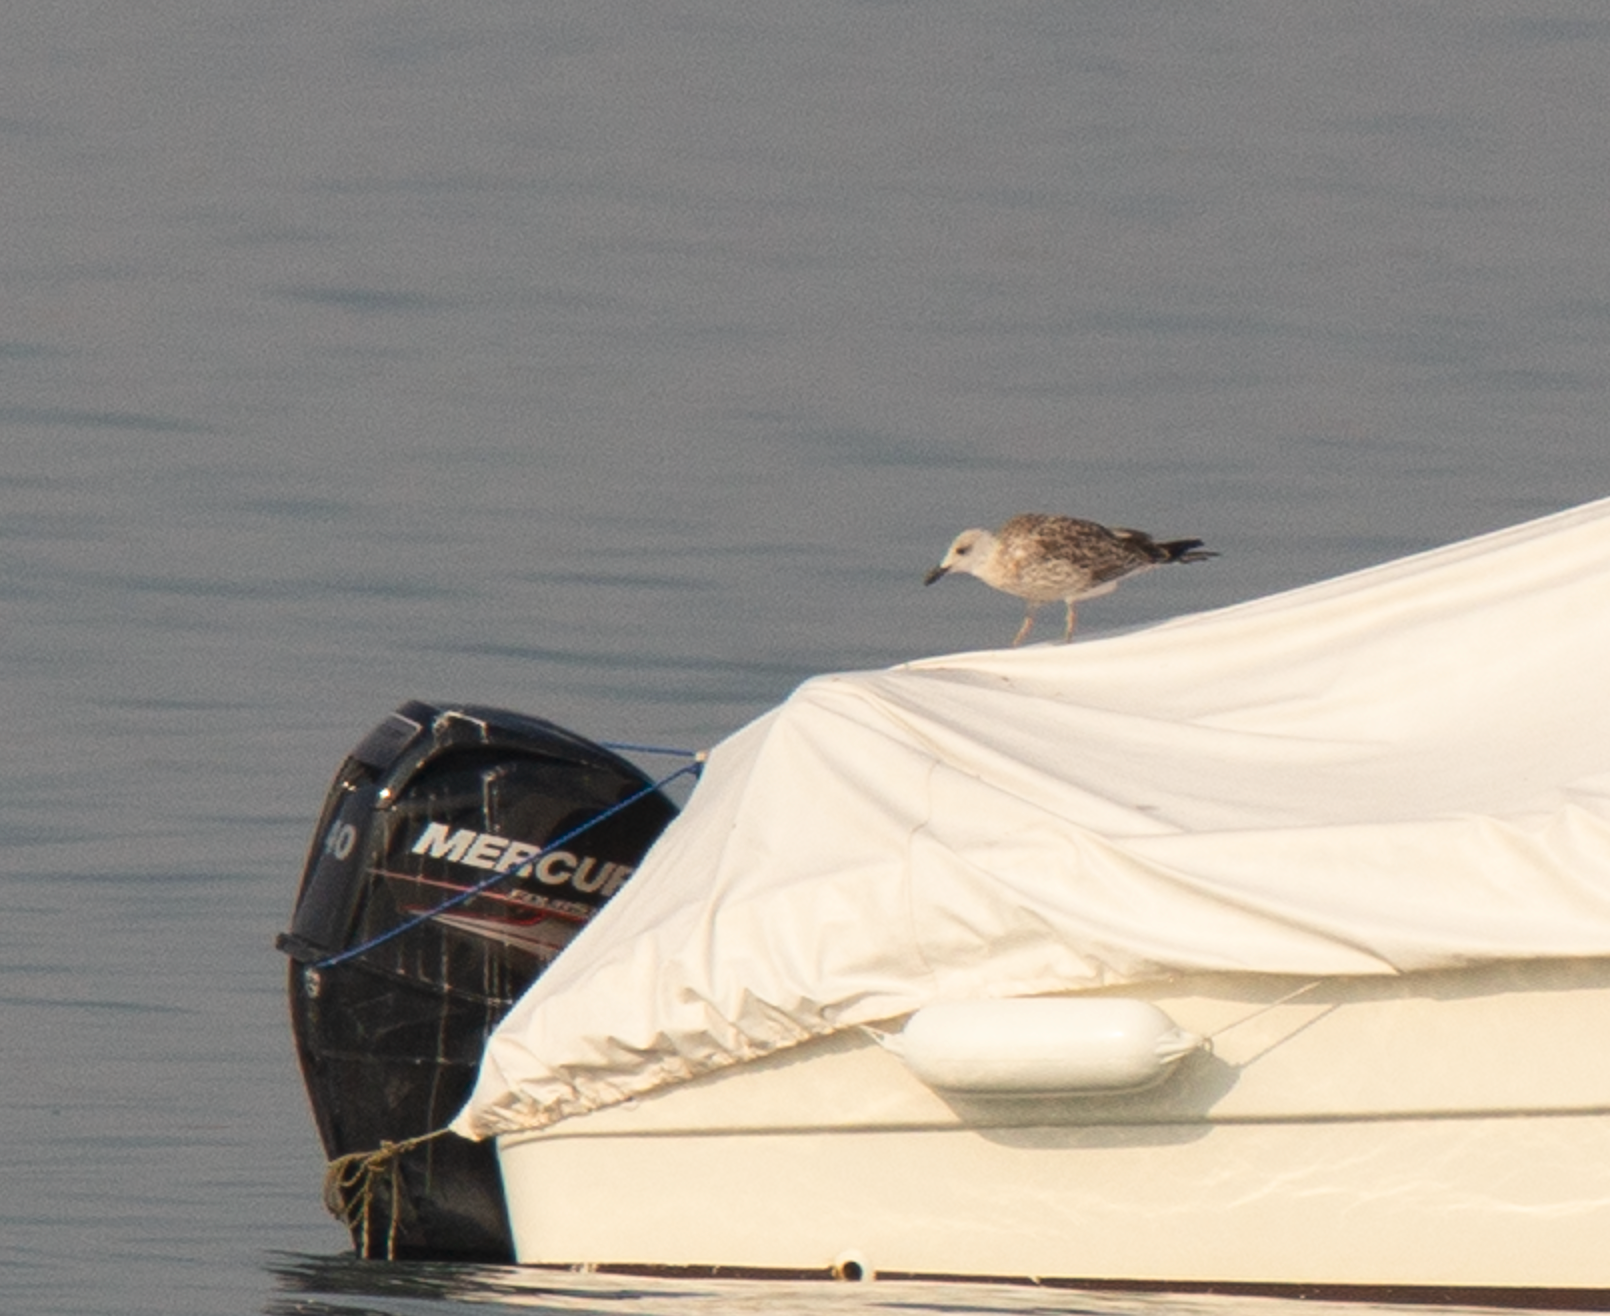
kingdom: Animalia
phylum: Chordata
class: Aves
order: Charadriiformes
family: Laridae
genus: Larus
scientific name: Larus michahellis
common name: Yellow-legged gull
